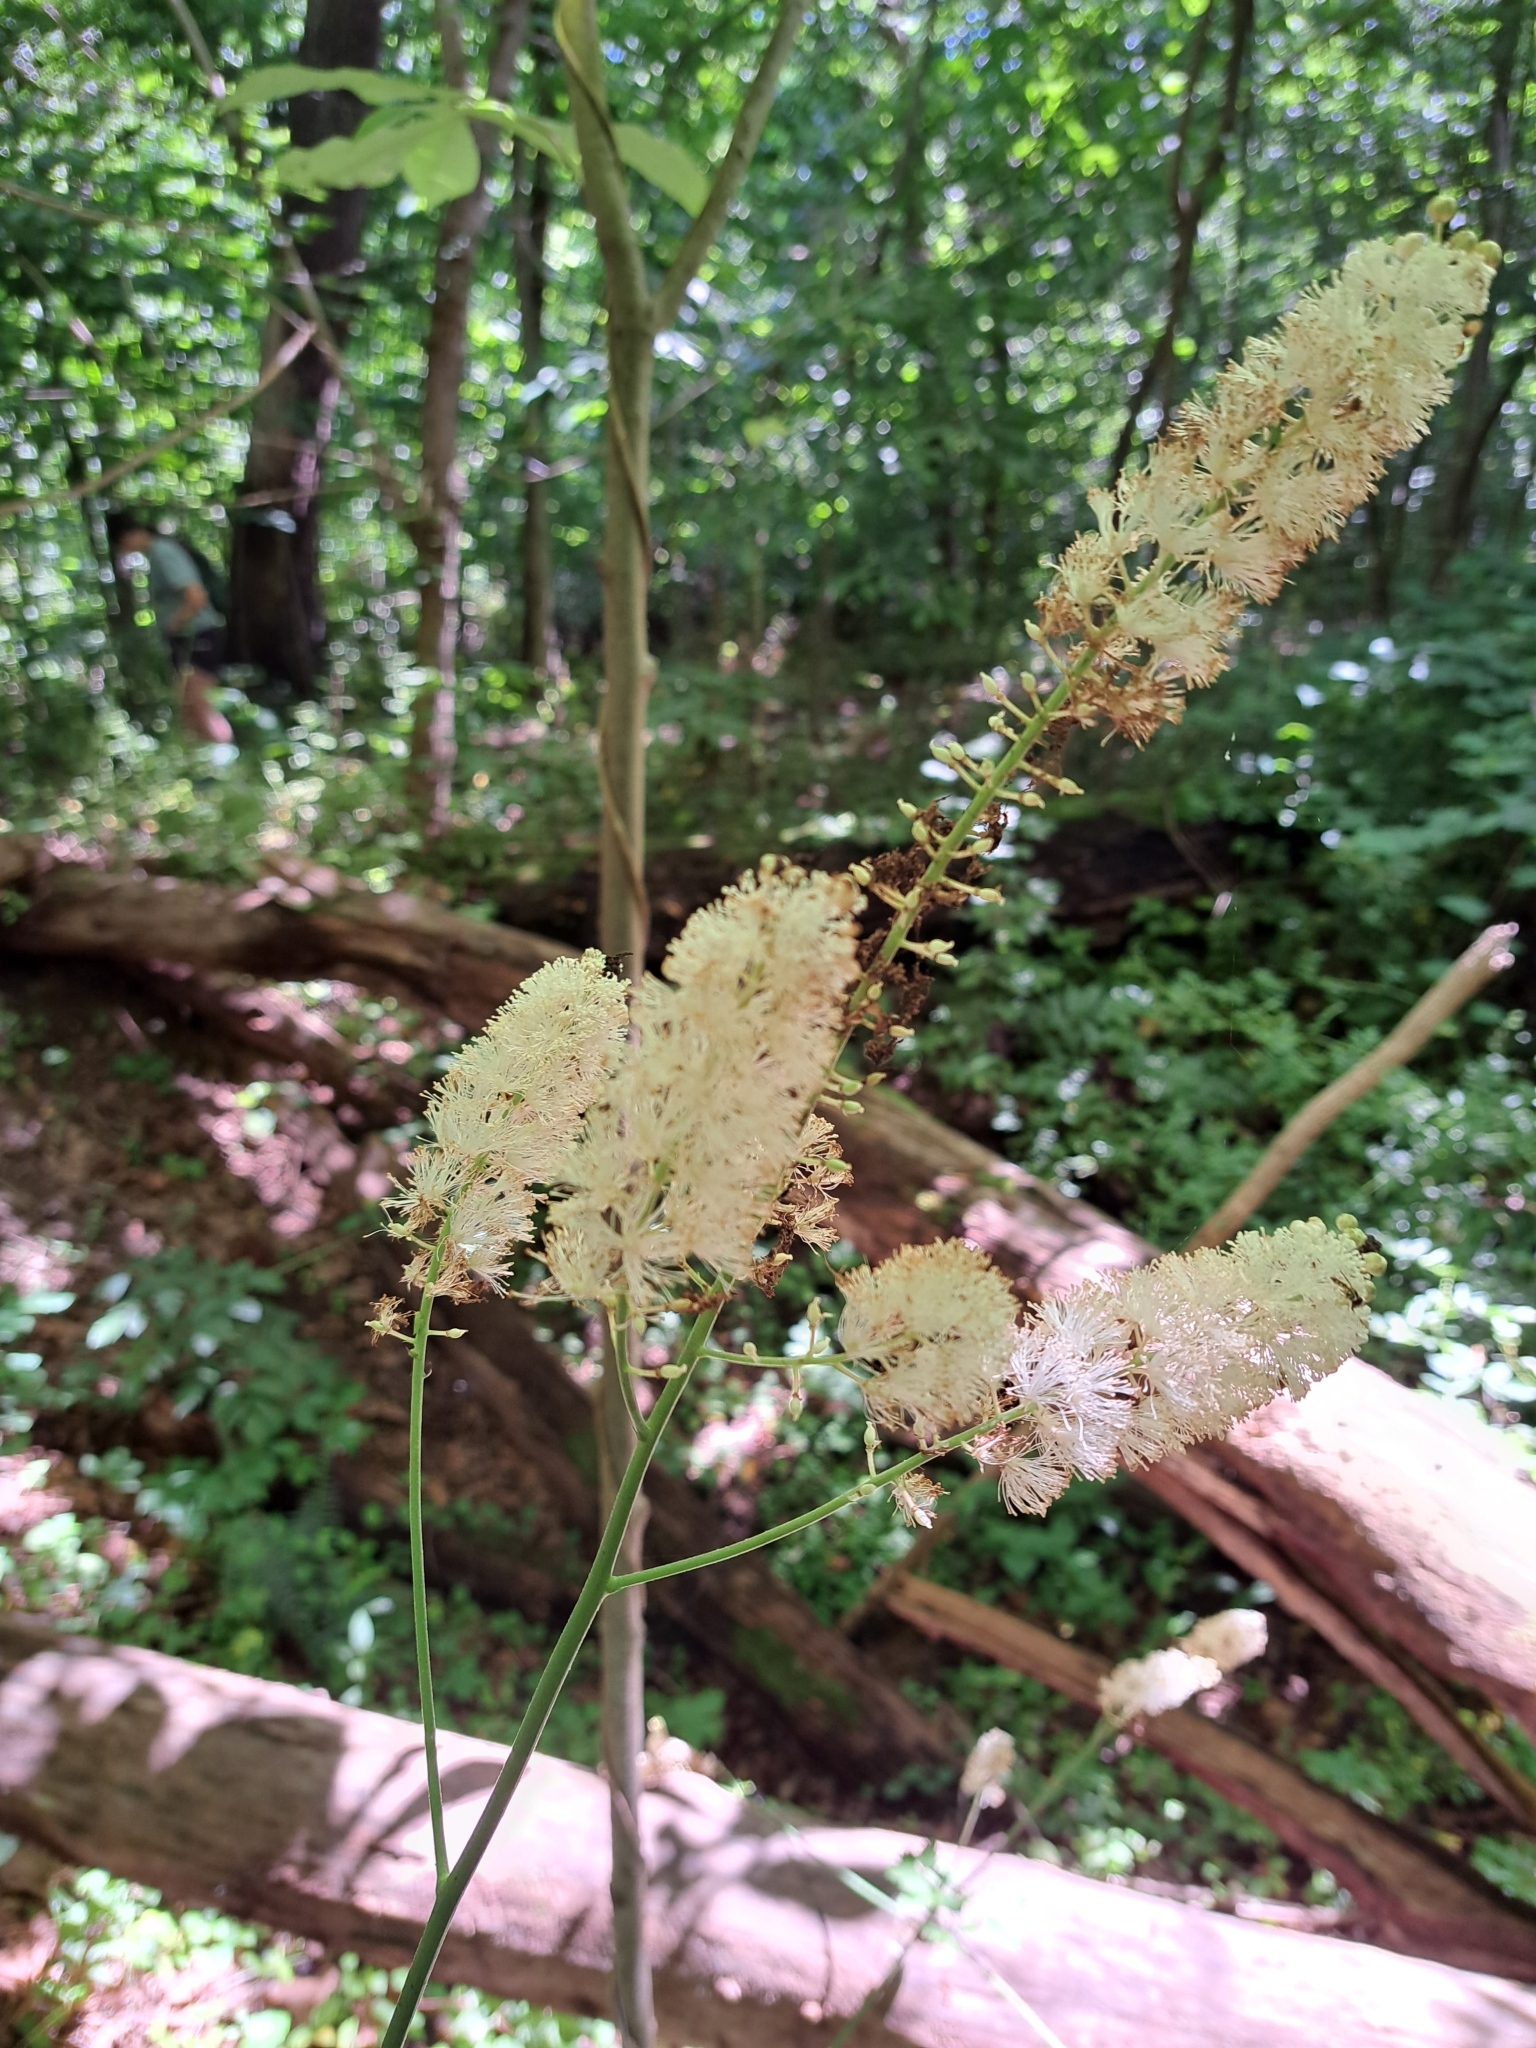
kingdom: Plantae
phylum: Tracheophyta
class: Magnoliopsida
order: Ranunculales
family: Ranunculaceae
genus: Actaea
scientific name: Actaea racemosa
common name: Black cohosh
